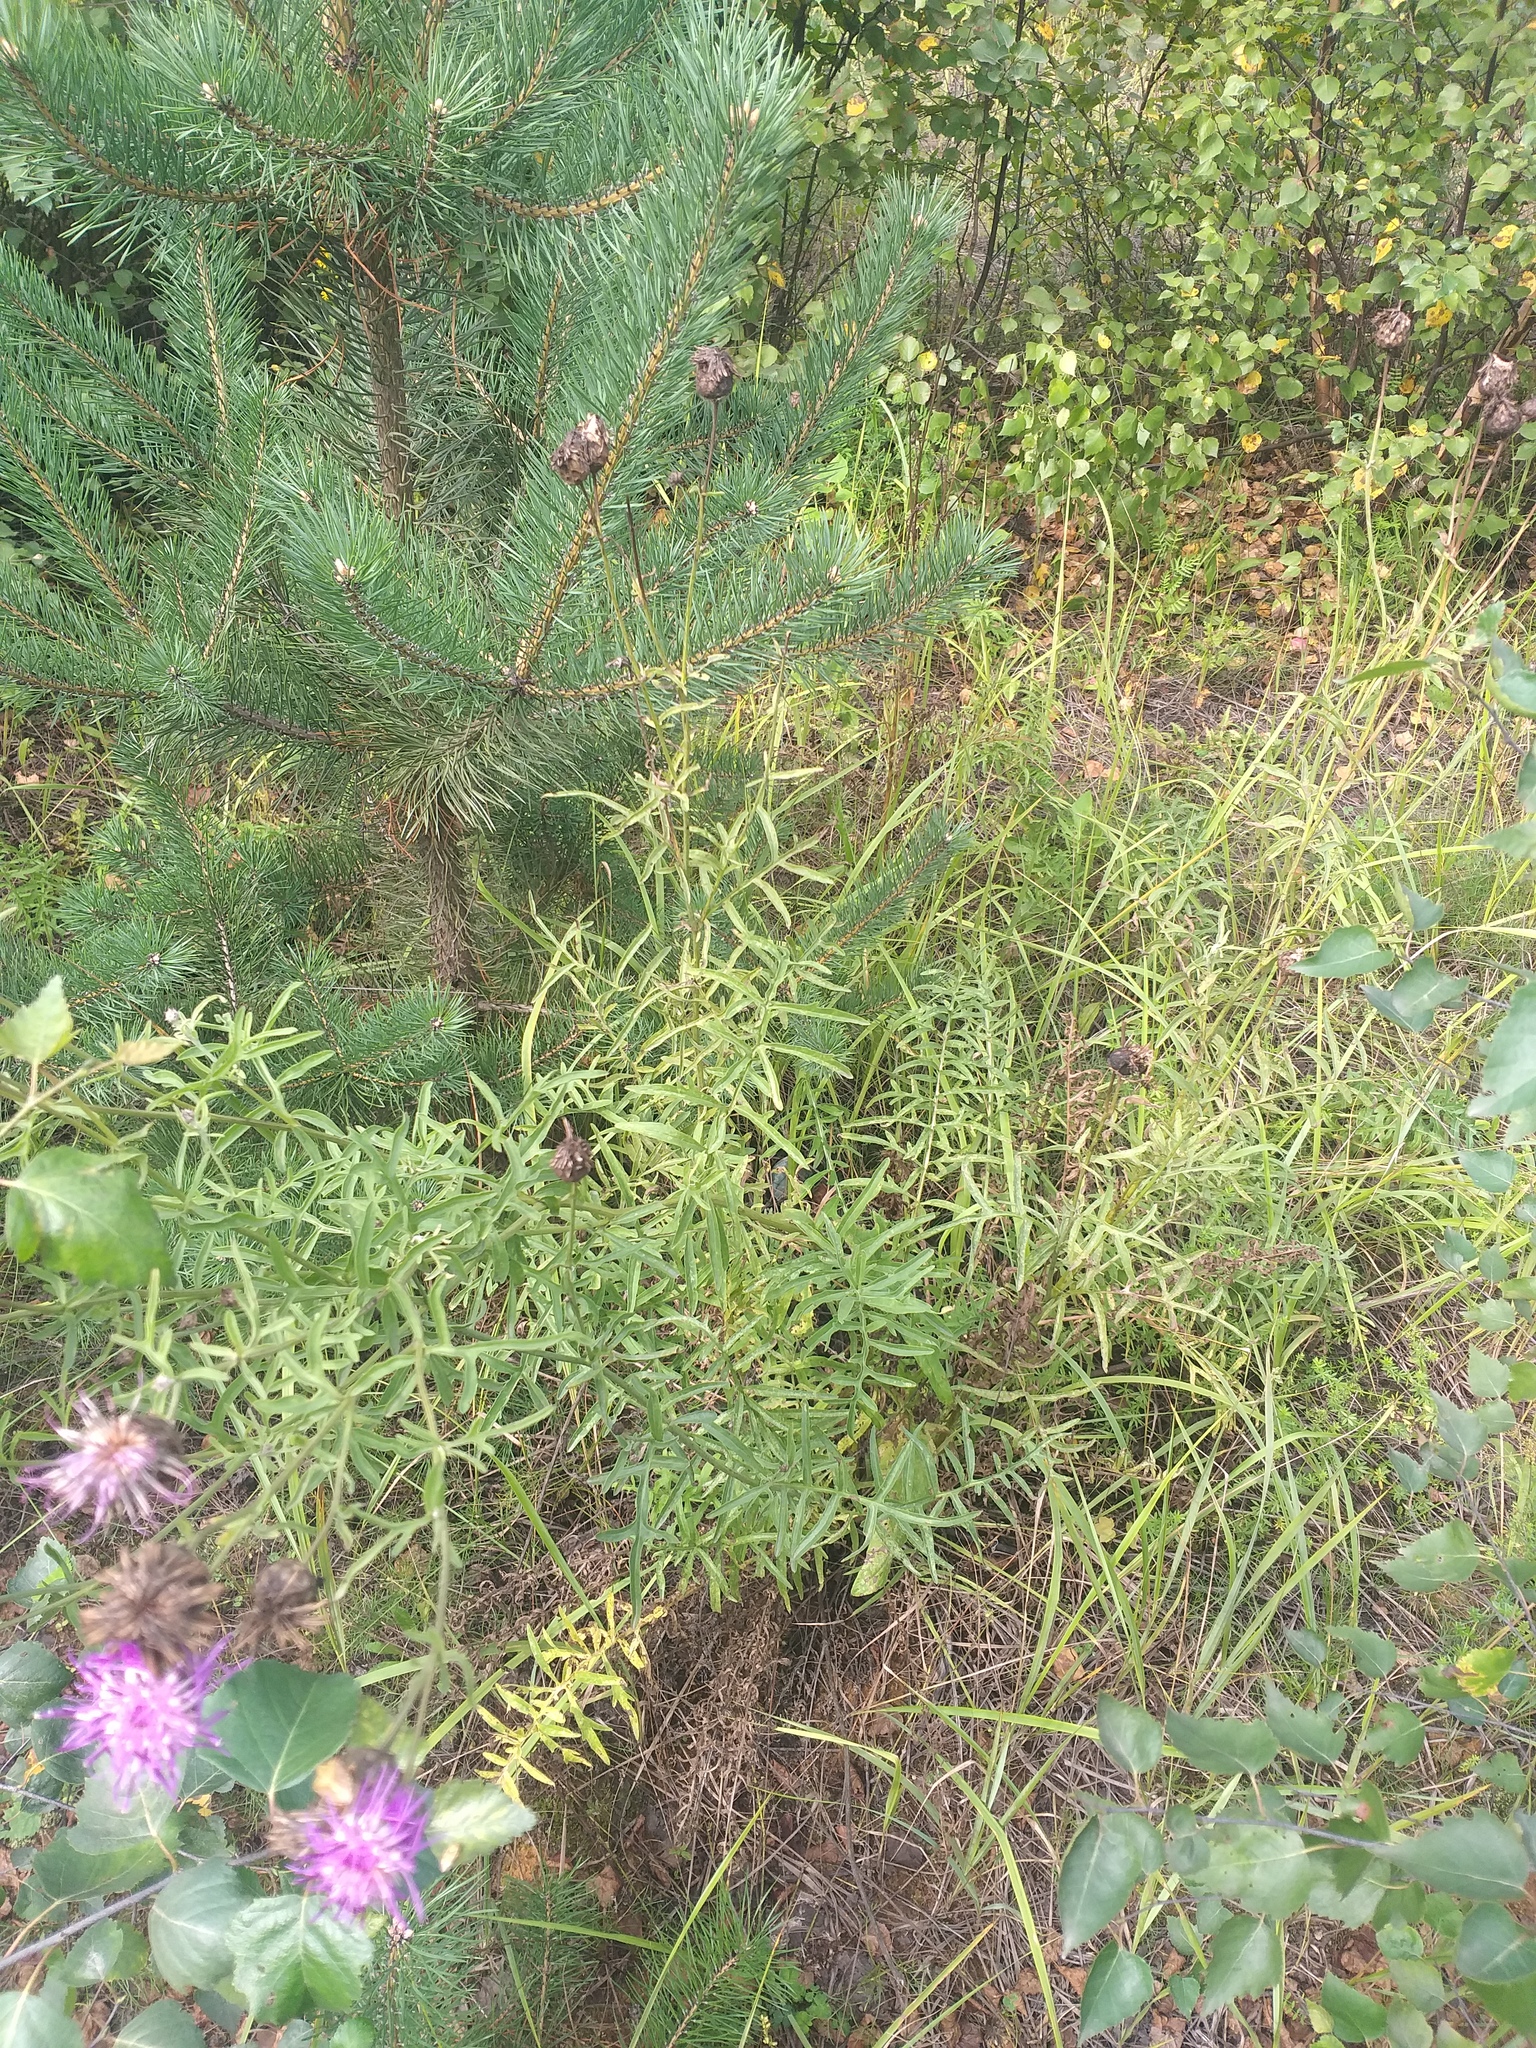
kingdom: Plantae
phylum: Tracheophyta
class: Magnoliopsida
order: Asterales
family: Asteraceae
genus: Centaurea
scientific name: Centaurea scabiosa
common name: Greater knapweed
